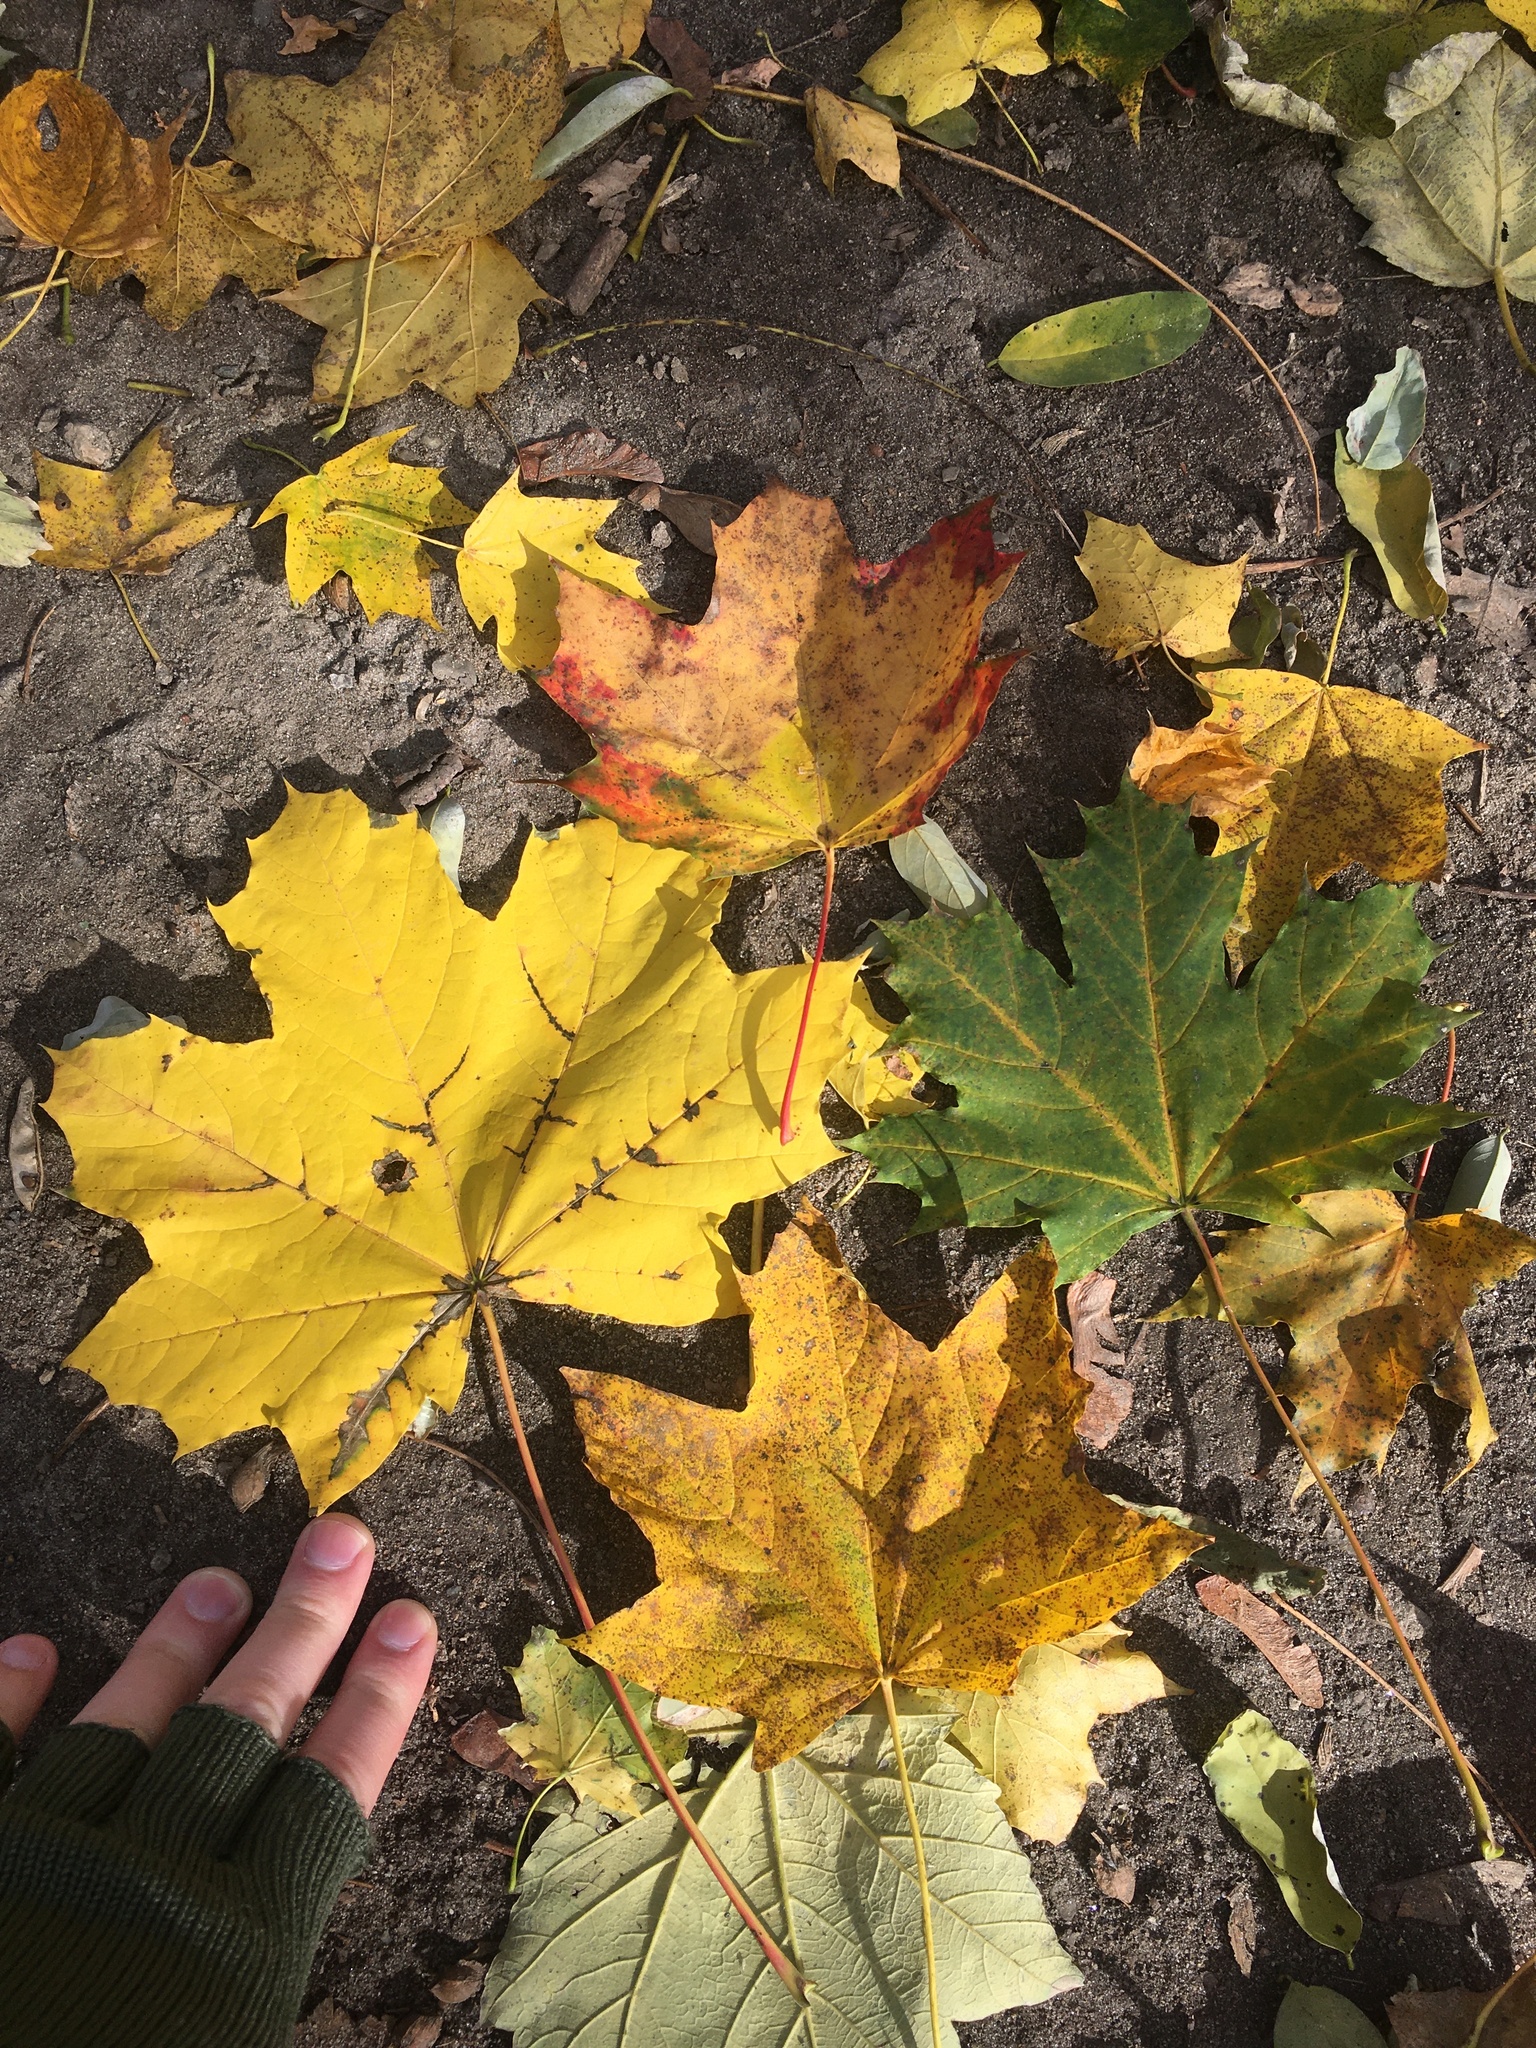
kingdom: Plantae
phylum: Tracheophyta
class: Magnoliopsida
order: Sapindales
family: Sapindaceae
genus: Acer
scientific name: Acer platanoides
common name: Norway maple
